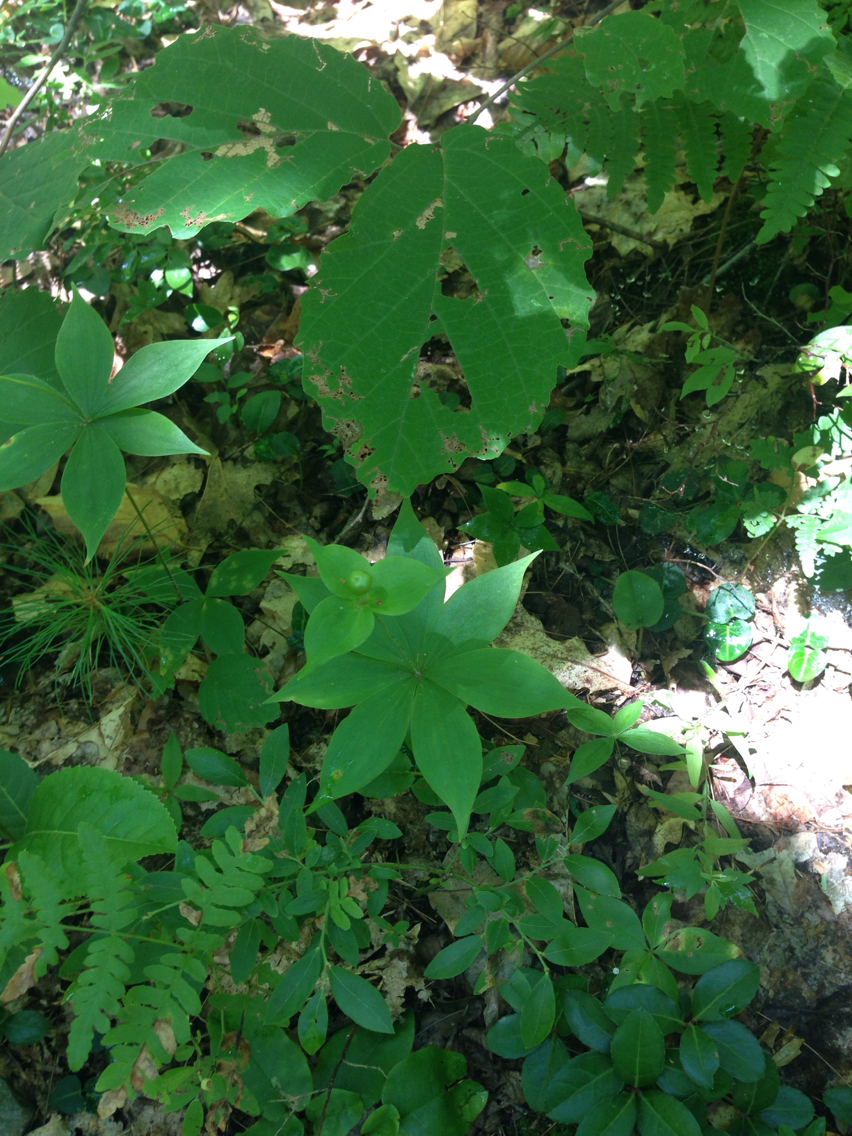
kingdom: Plantae
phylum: Tracheophyta
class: Liliopsida
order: Liliales
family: Liliaceae
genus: Medeola
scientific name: Medeola virginiana
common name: Indian cucumber-root
